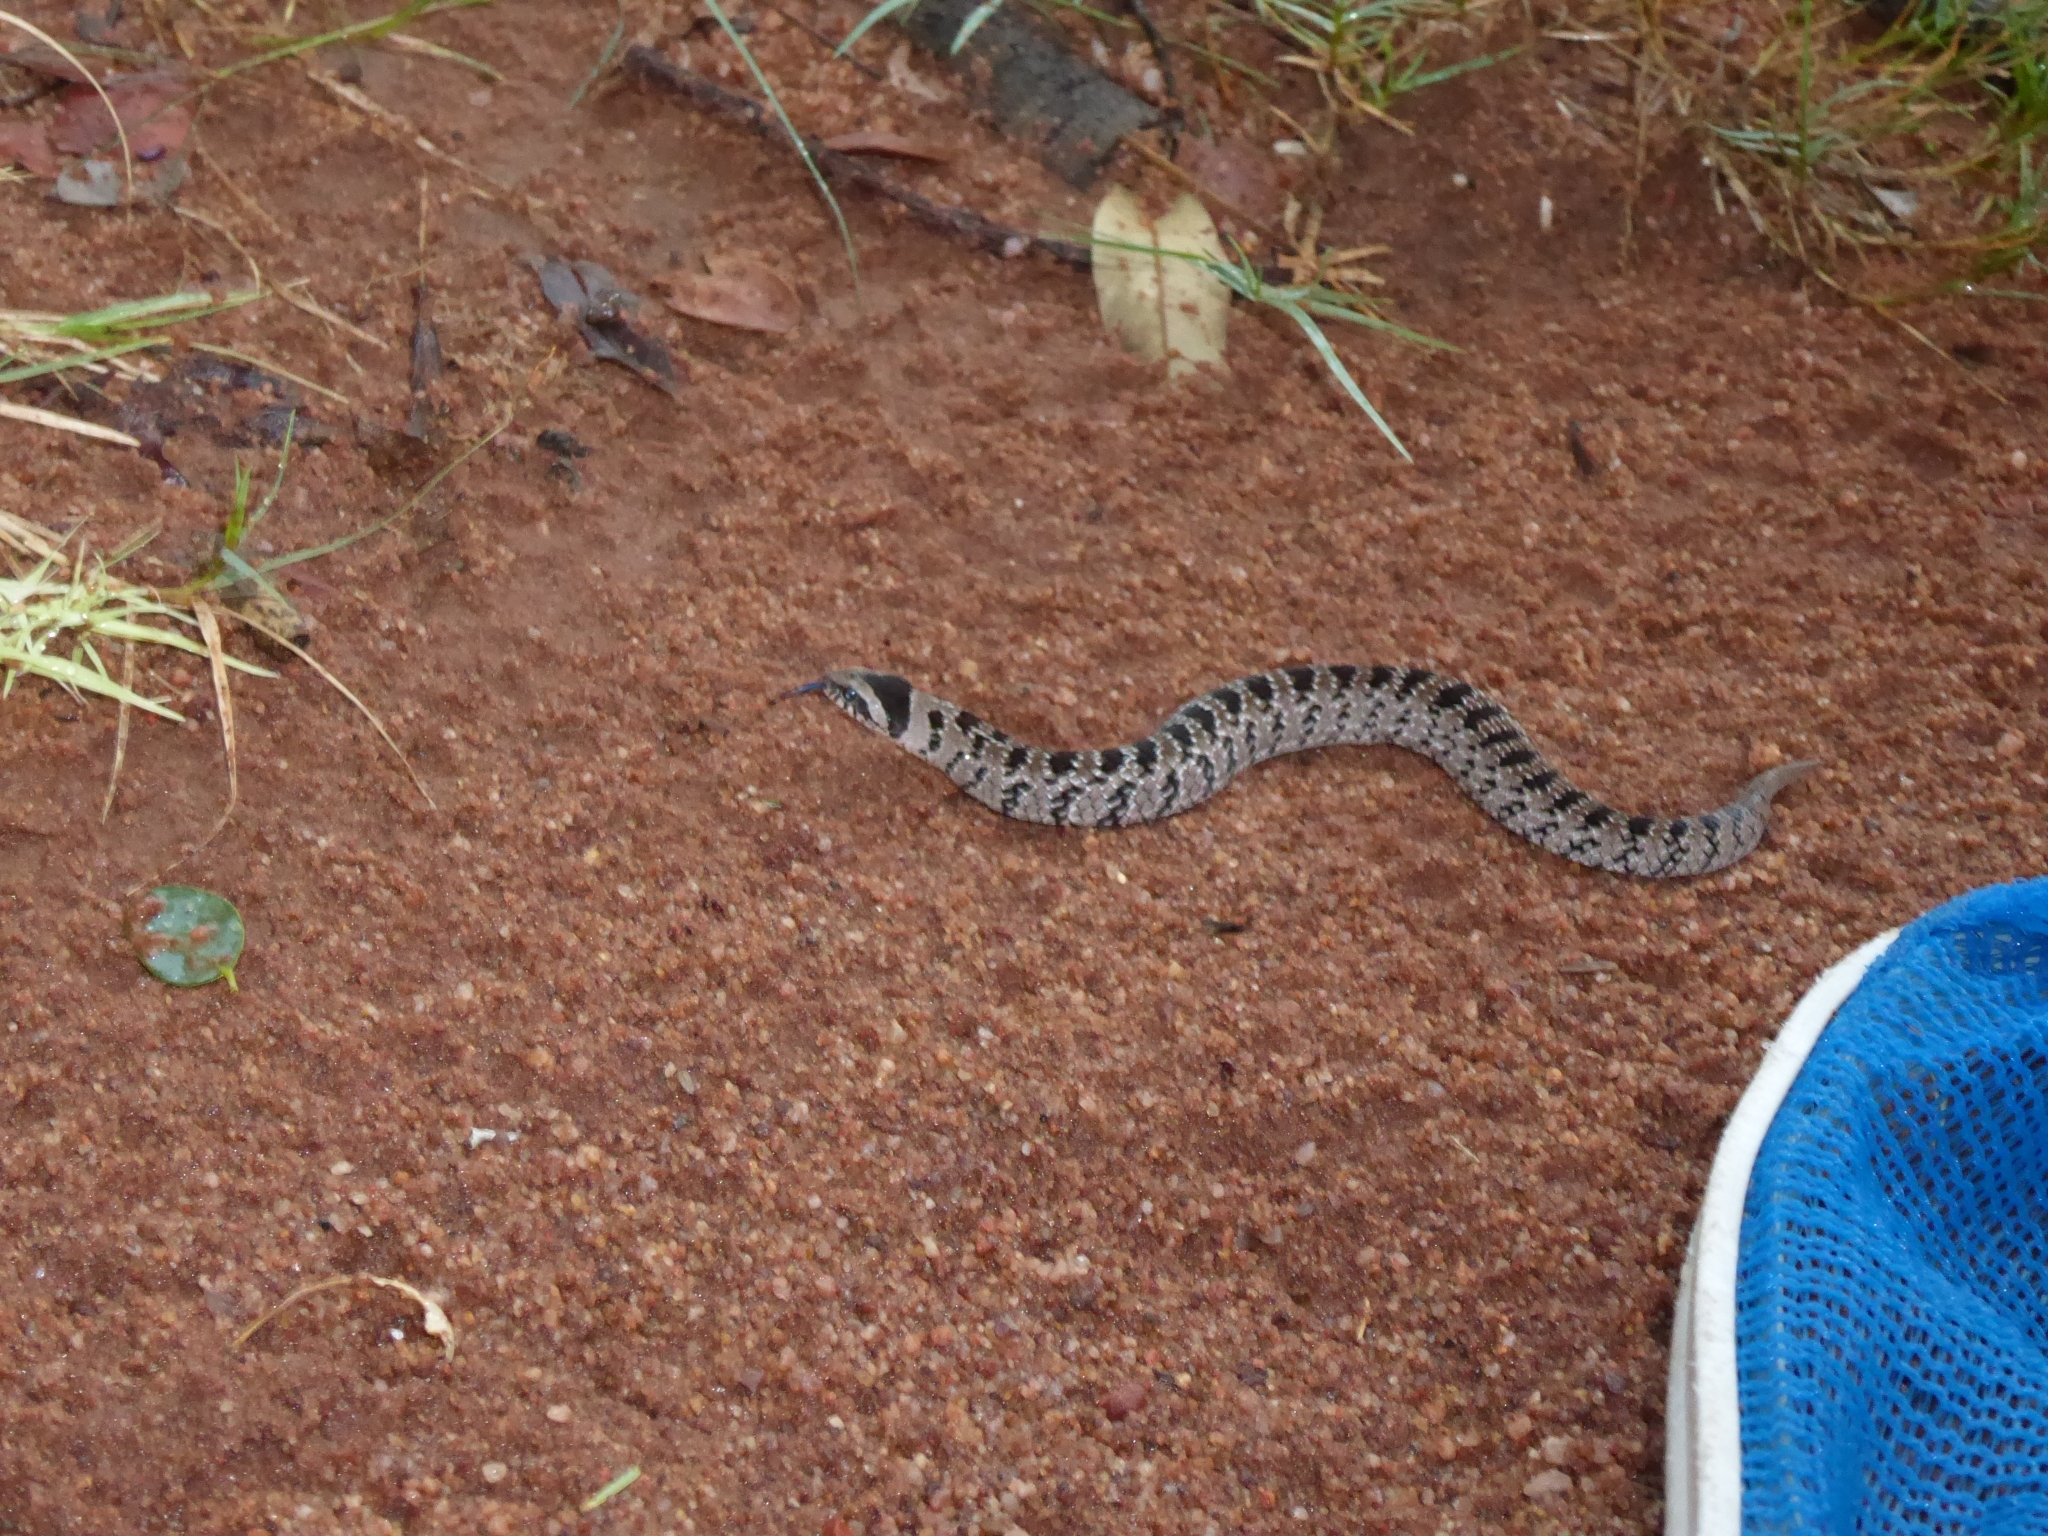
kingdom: Animalia
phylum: Chordata
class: Squamata
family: Viperidae
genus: Causus
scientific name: Causus defilippii
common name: Snouted night adder
